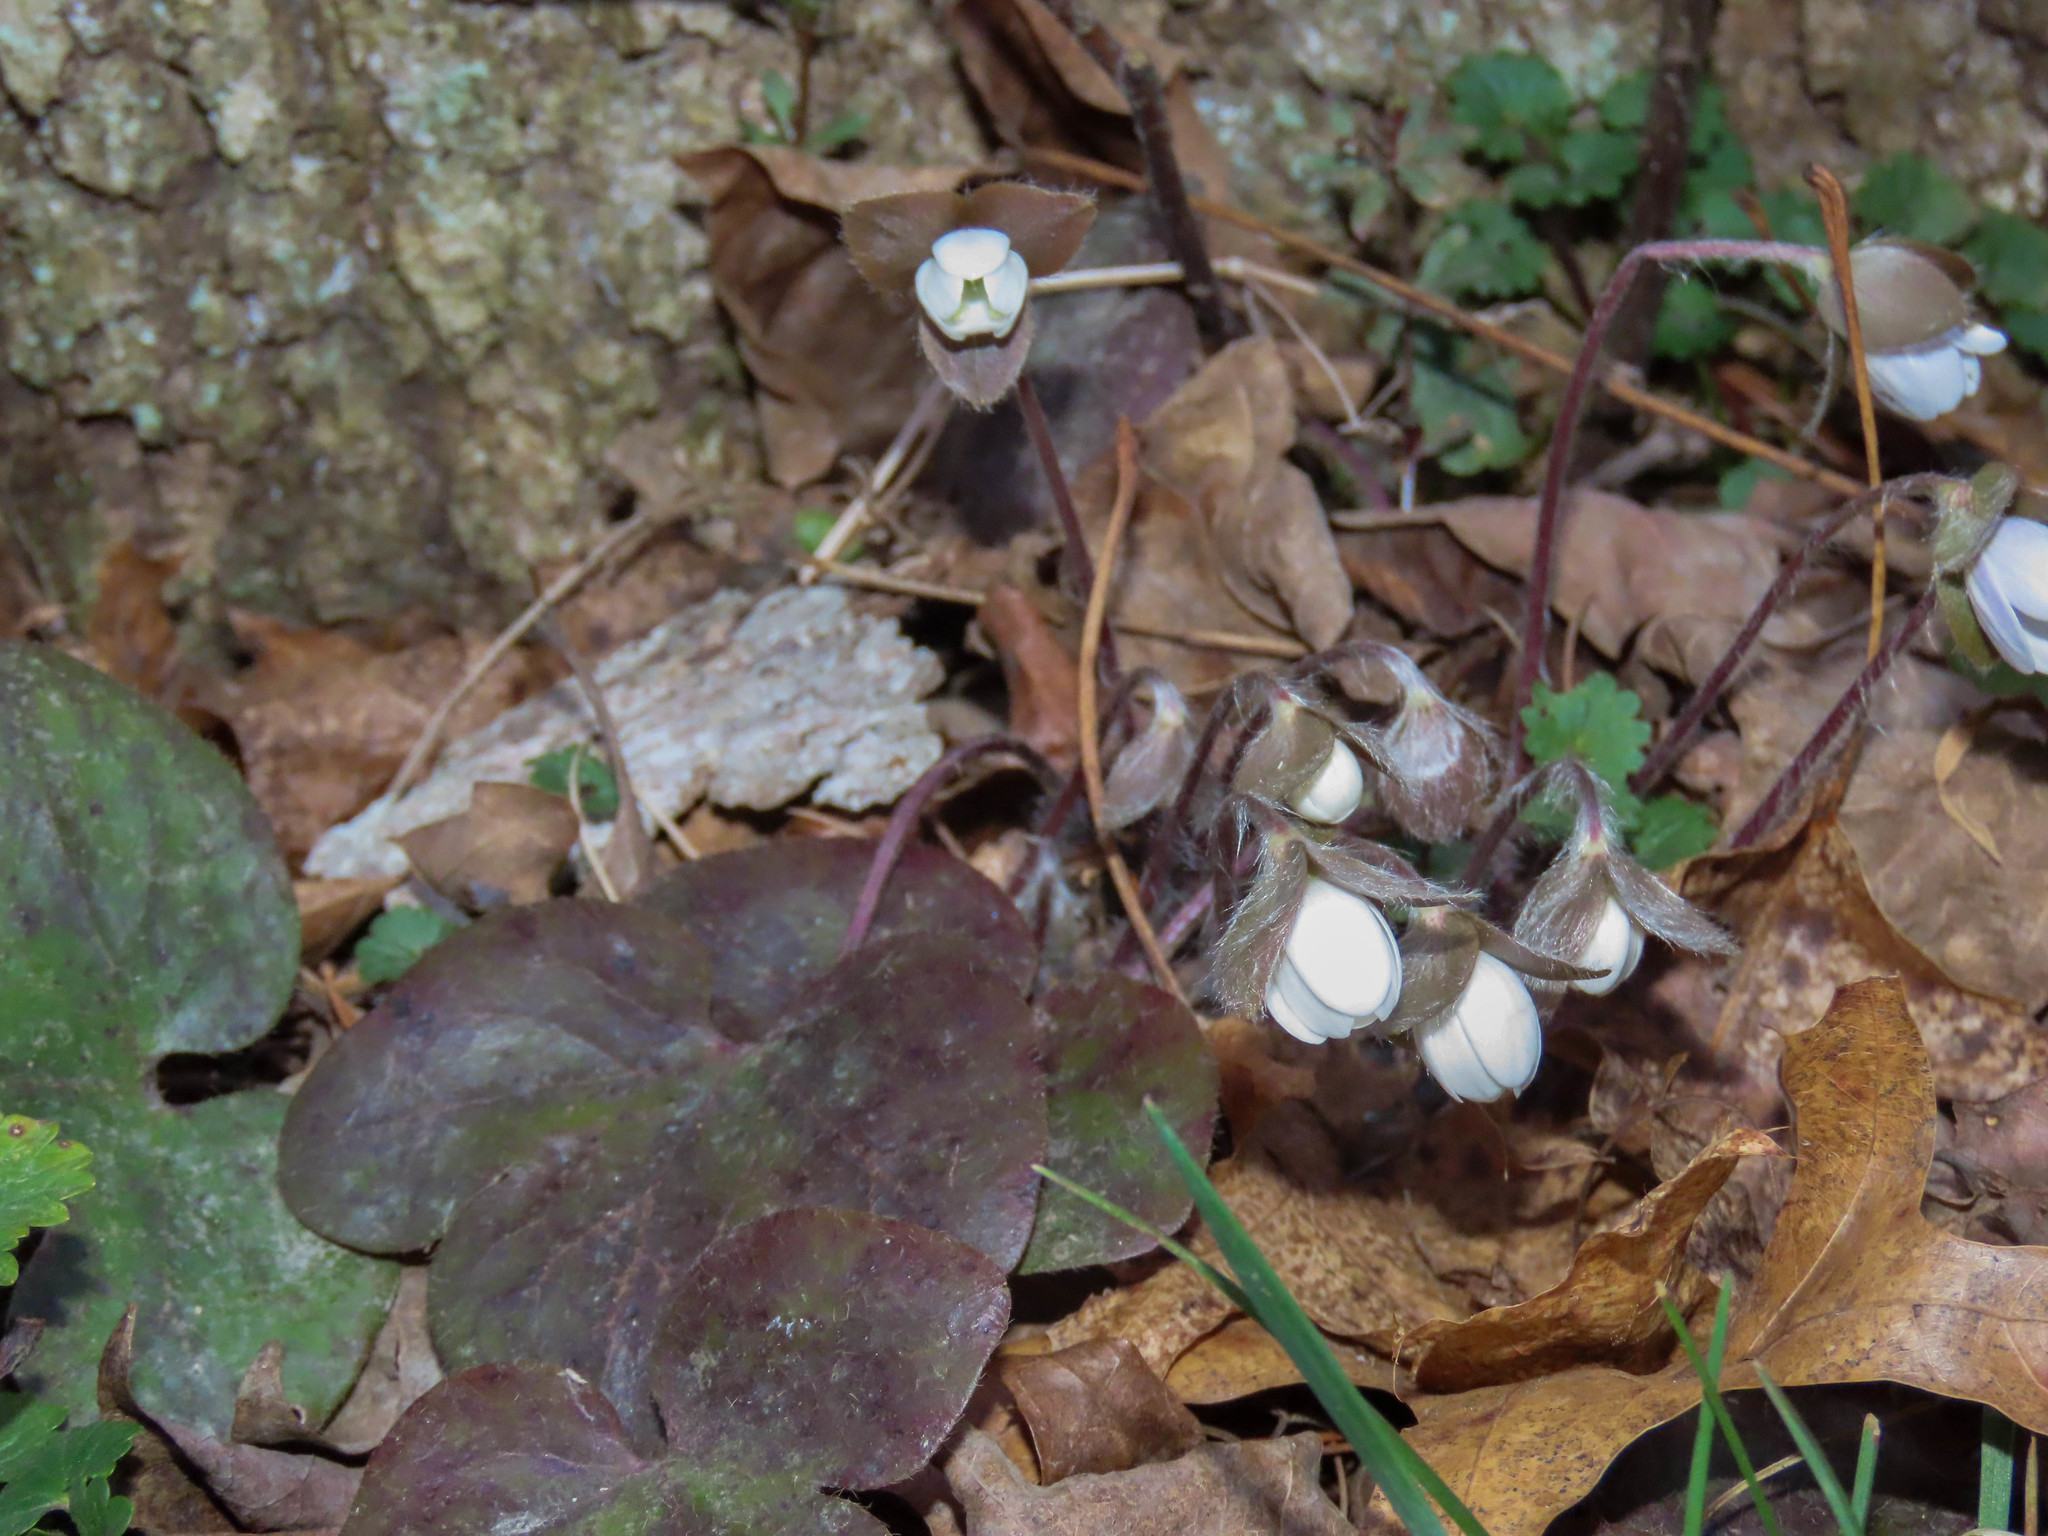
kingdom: Plantae
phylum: Tracheophyta
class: Magnoliopsida
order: Ranunculales
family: Ranunculaceae
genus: Hepatica
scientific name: Hepatica americana
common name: American hepatica
